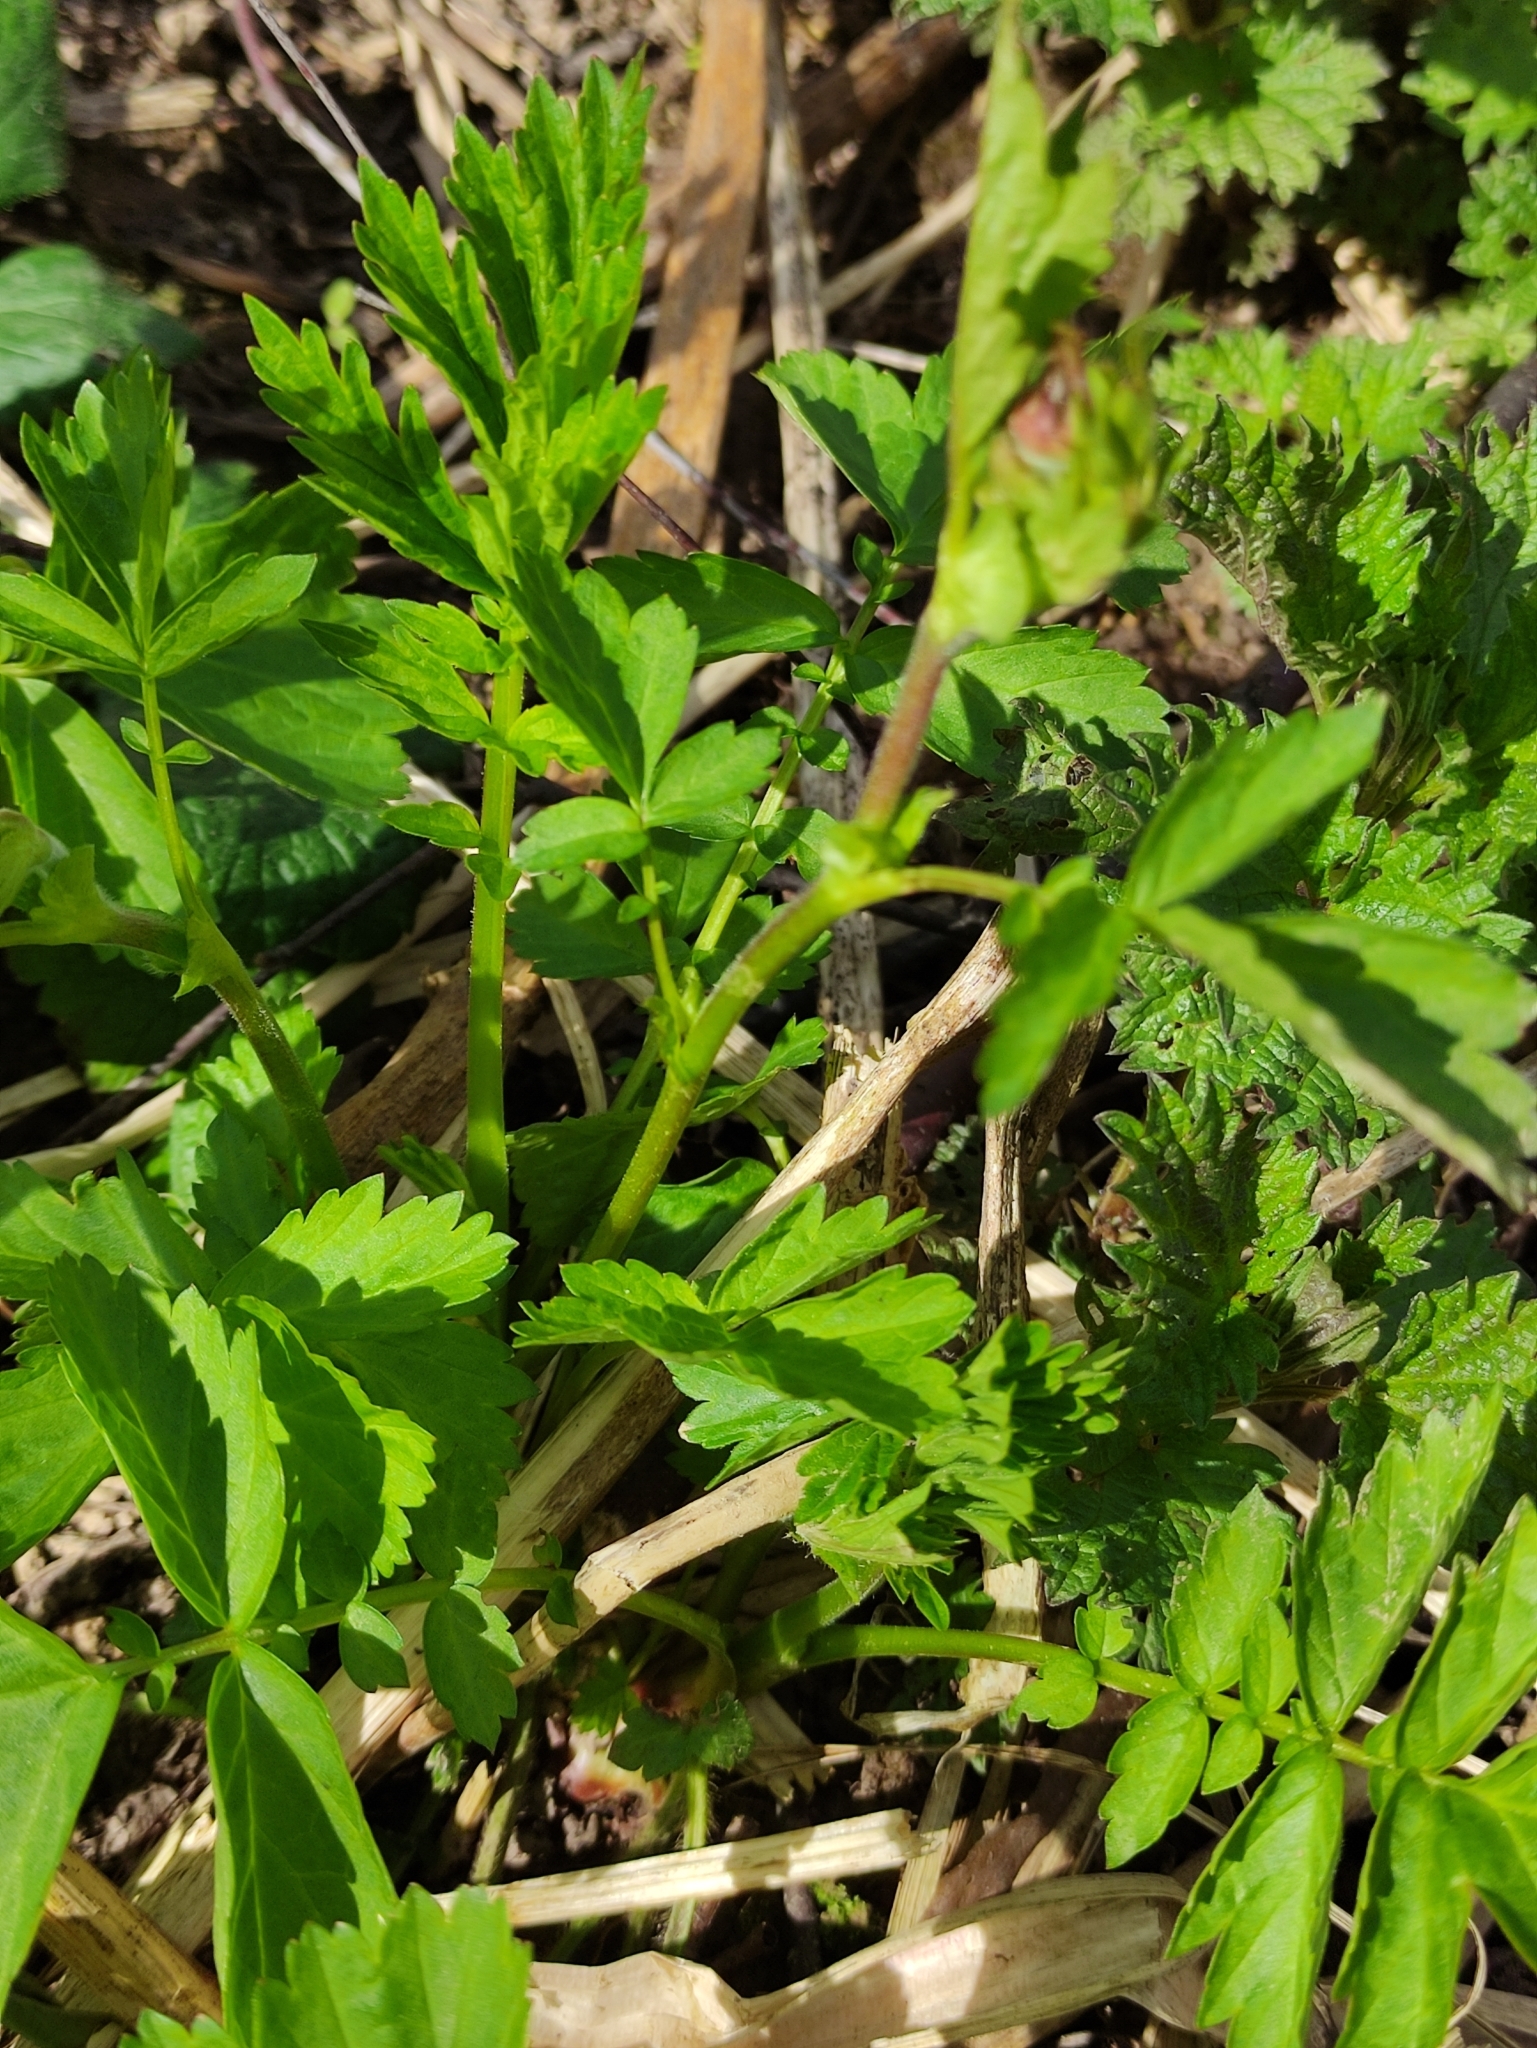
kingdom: Plantae
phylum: Tracheophyta
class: Magnoliopsida
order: Rosales
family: Rosaceae
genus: Geum
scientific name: Geum rivale
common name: Water avens
